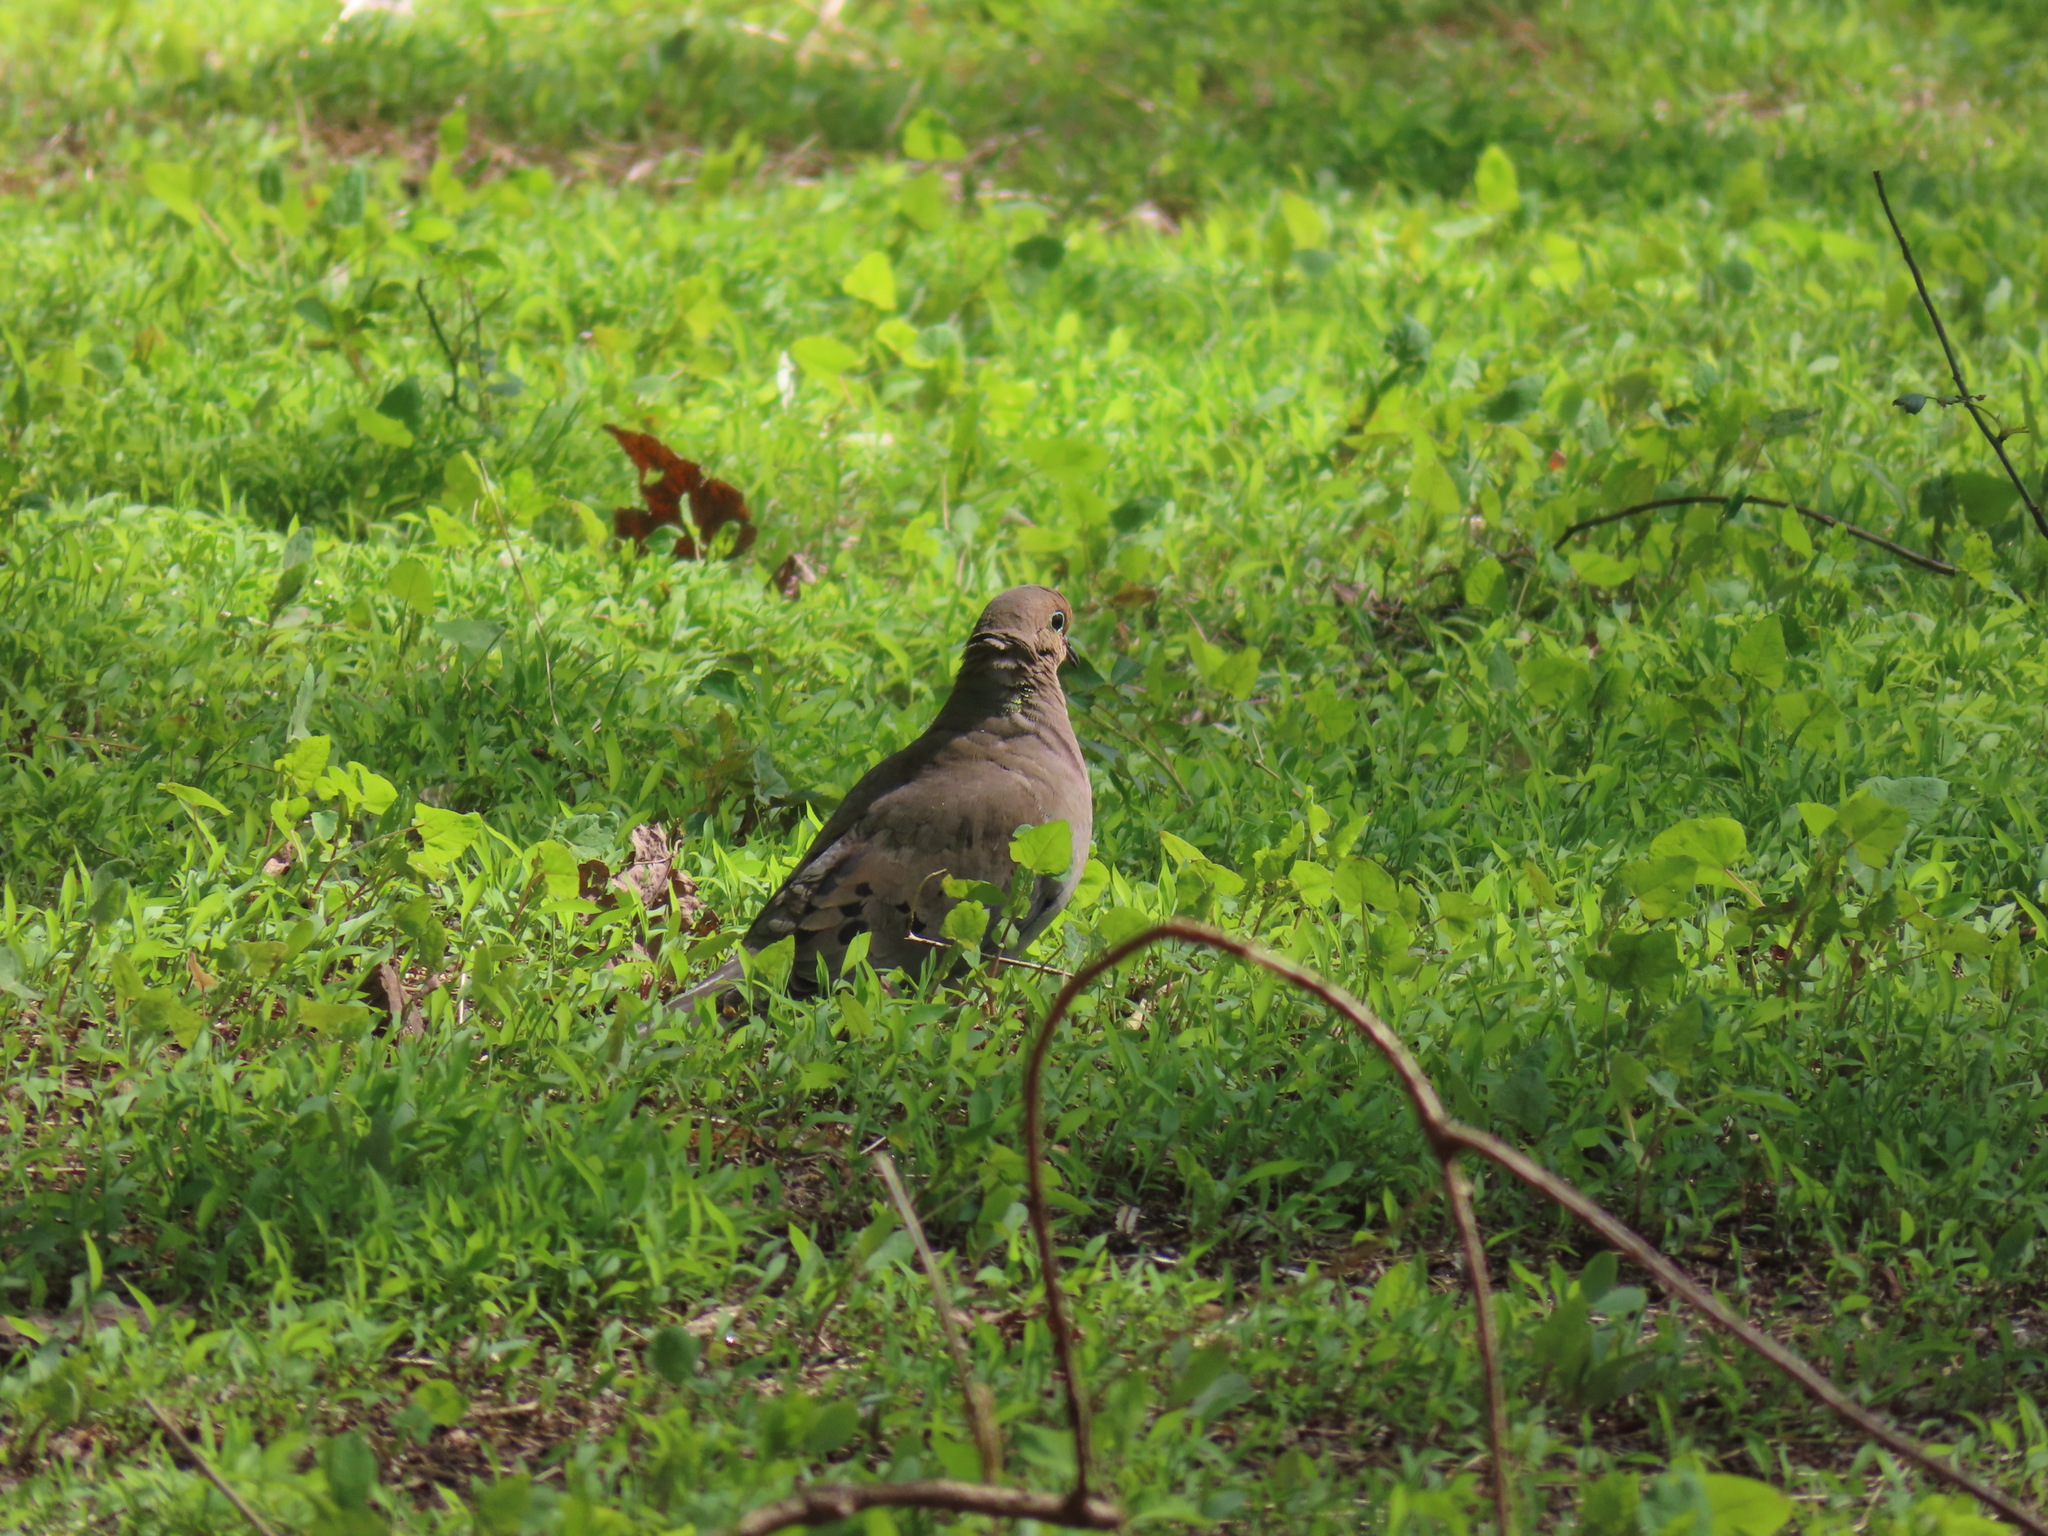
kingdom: Animalia
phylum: Chordata
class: Aves
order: Columbiformes
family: Columbidae
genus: Zenaida
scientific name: Zenaida macroura
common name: Mourning dove
